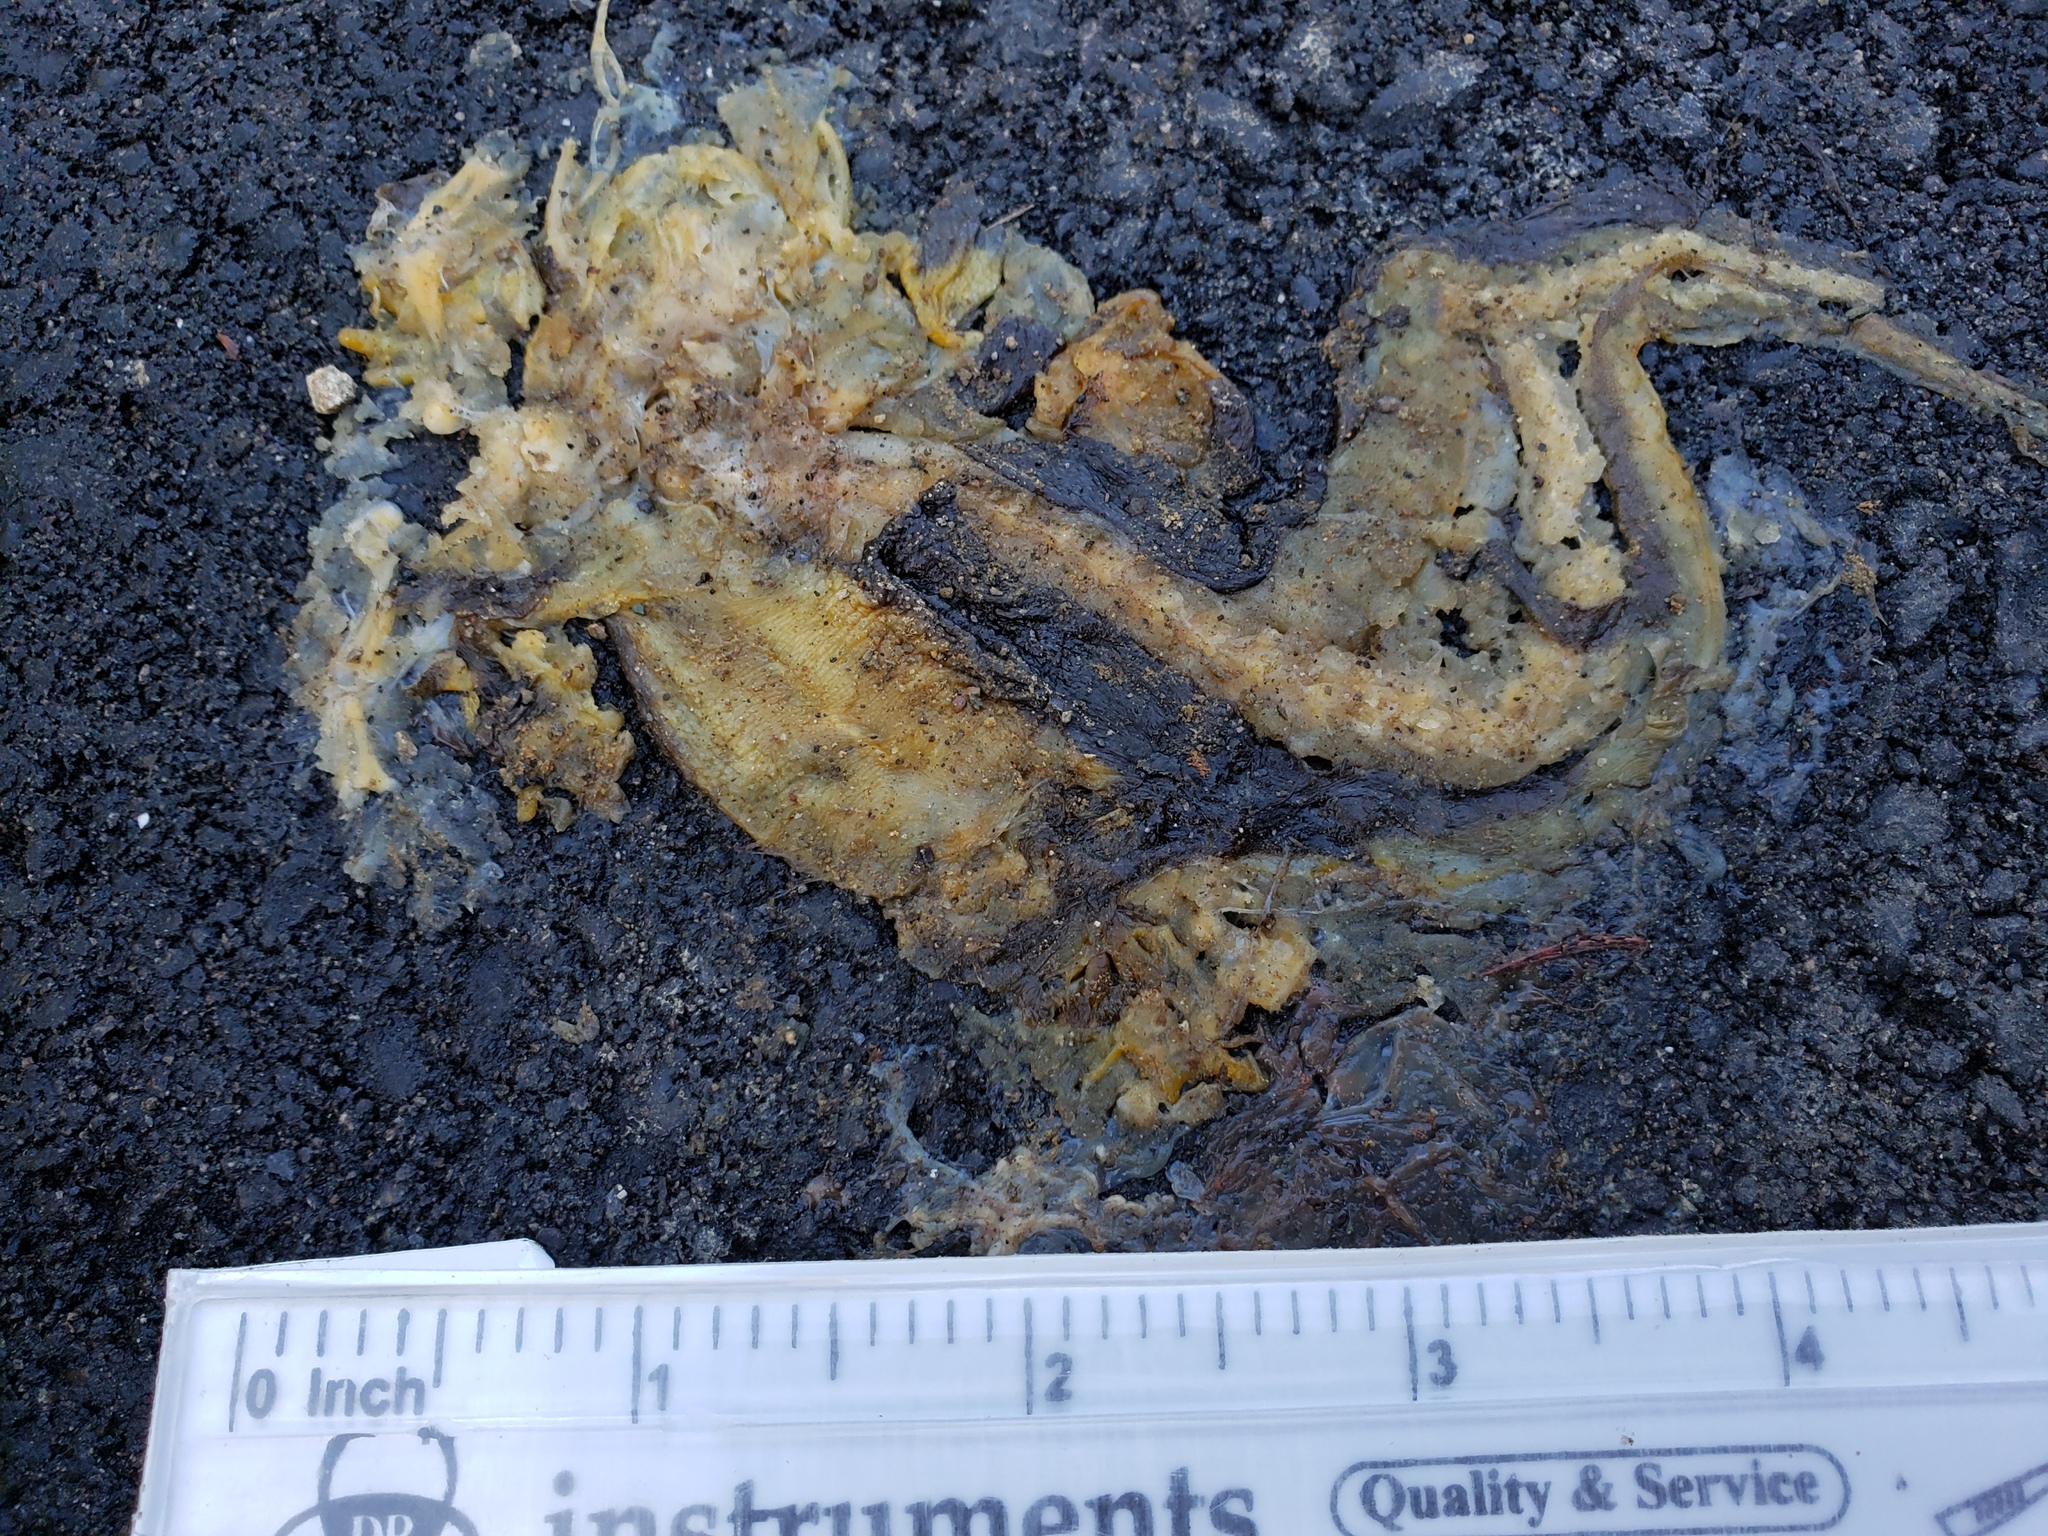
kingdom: Animalia
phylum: Chordata
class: Amphibia
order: Caudata
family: Salamandridae
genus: Taricha
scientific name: Taricha
